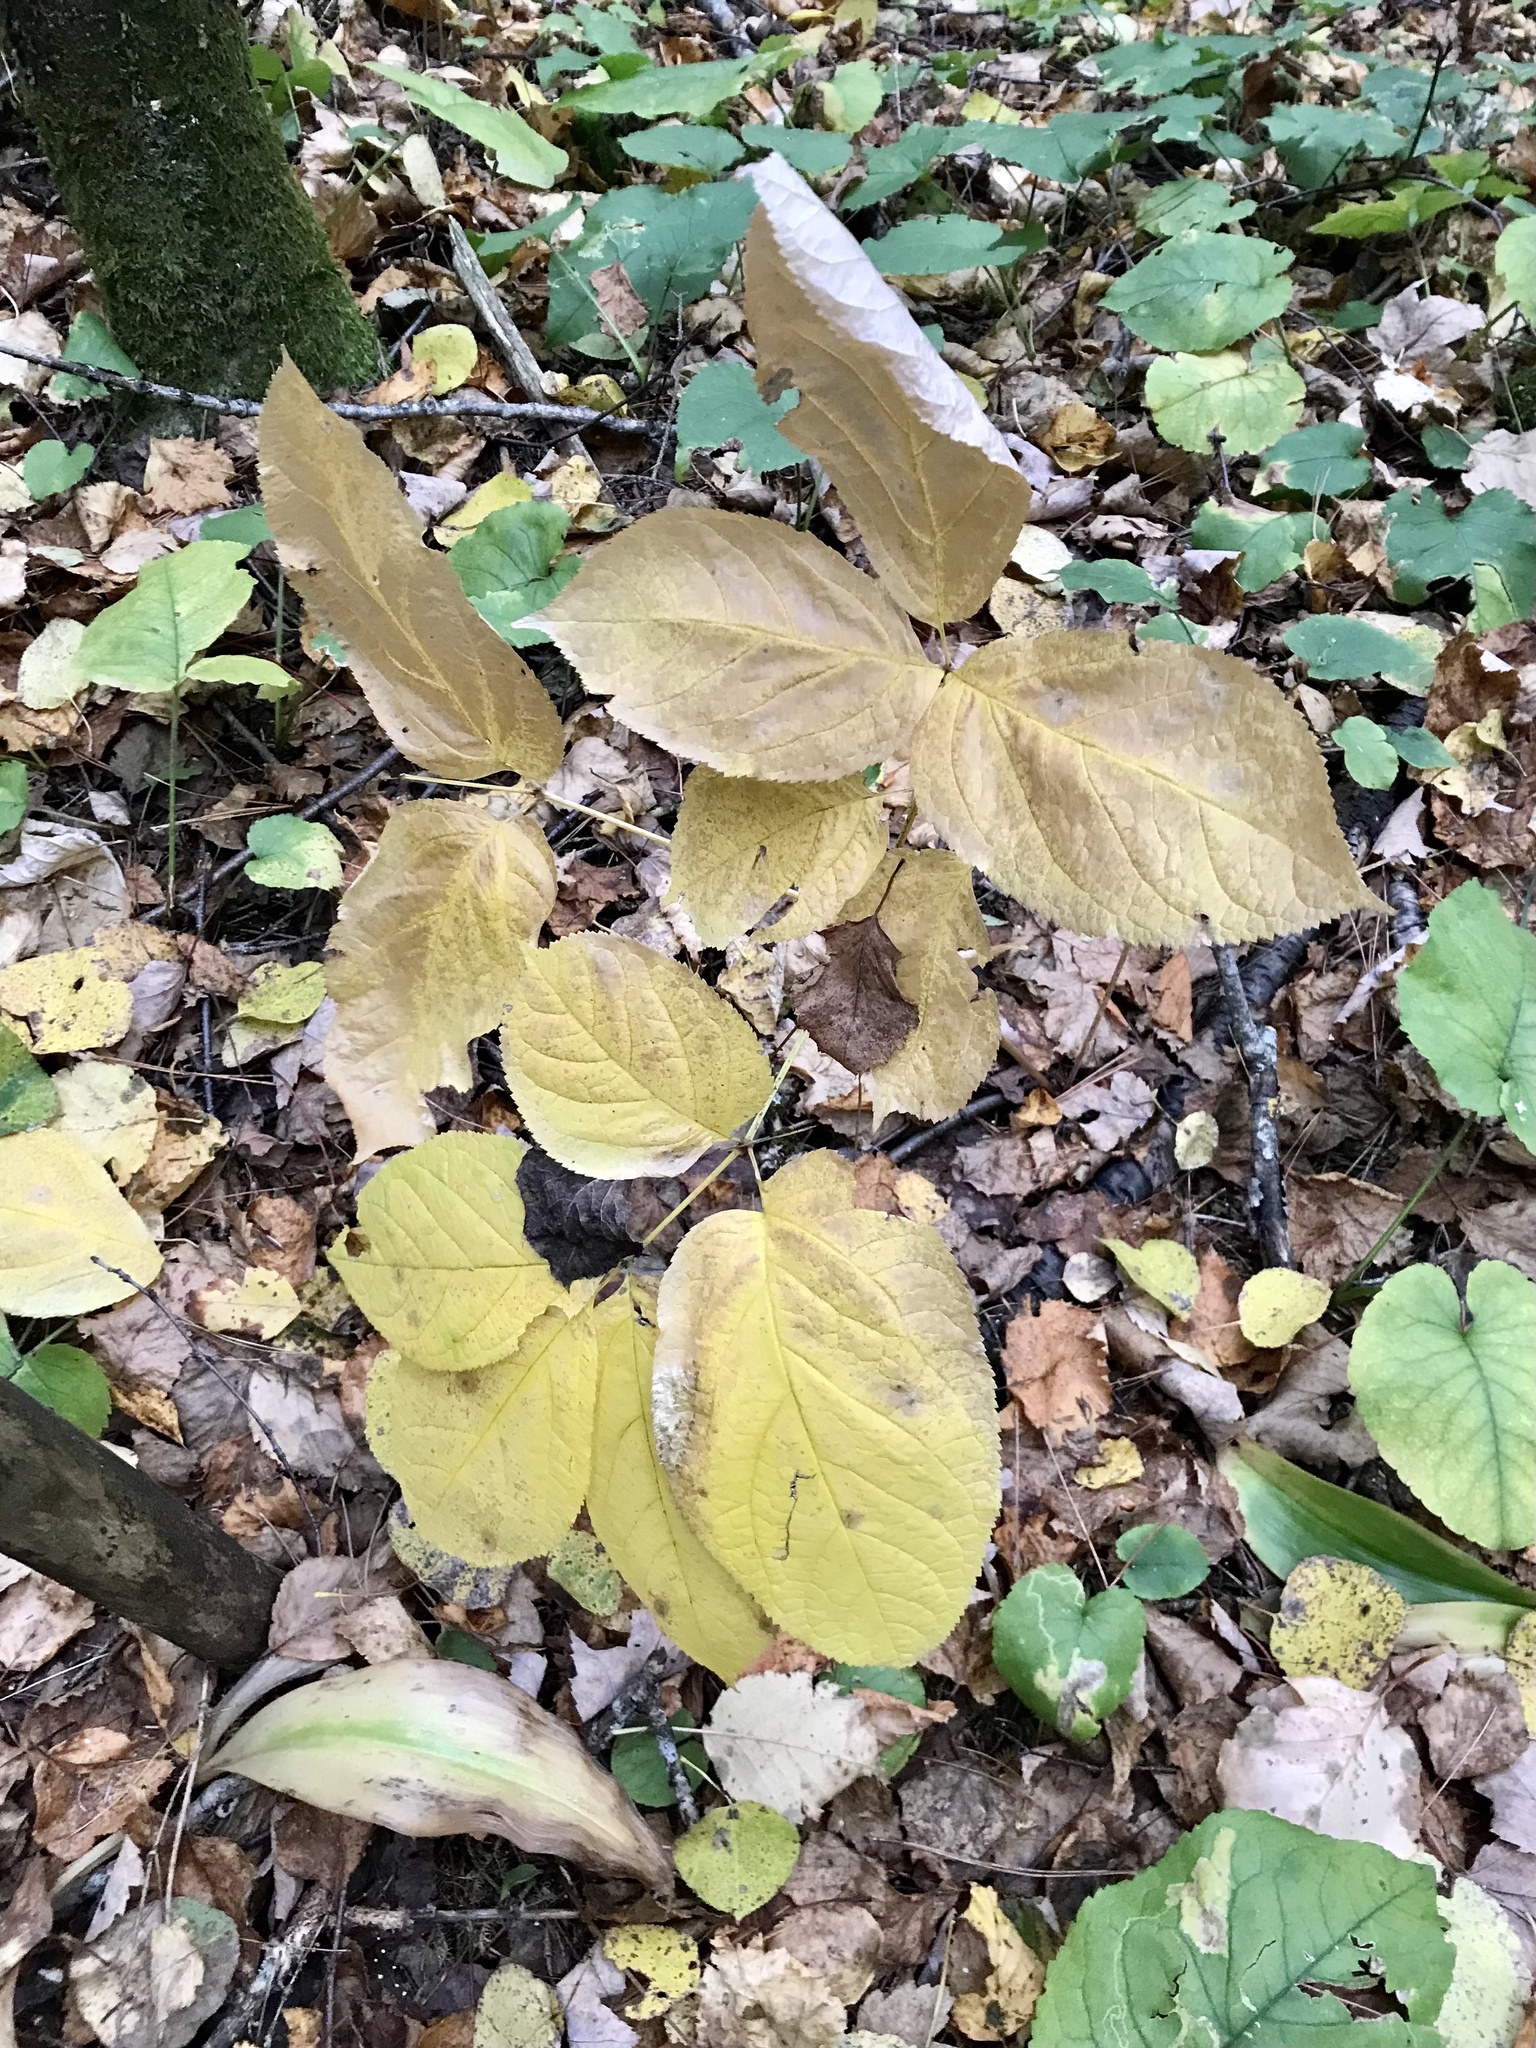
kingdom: Plantae
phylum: Tracheophyta
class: Magnoliopsida
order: Apiales
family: Araliaceae
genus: Aralia
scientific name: Aralia nudicaulis
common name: Wild sarsaparilla
